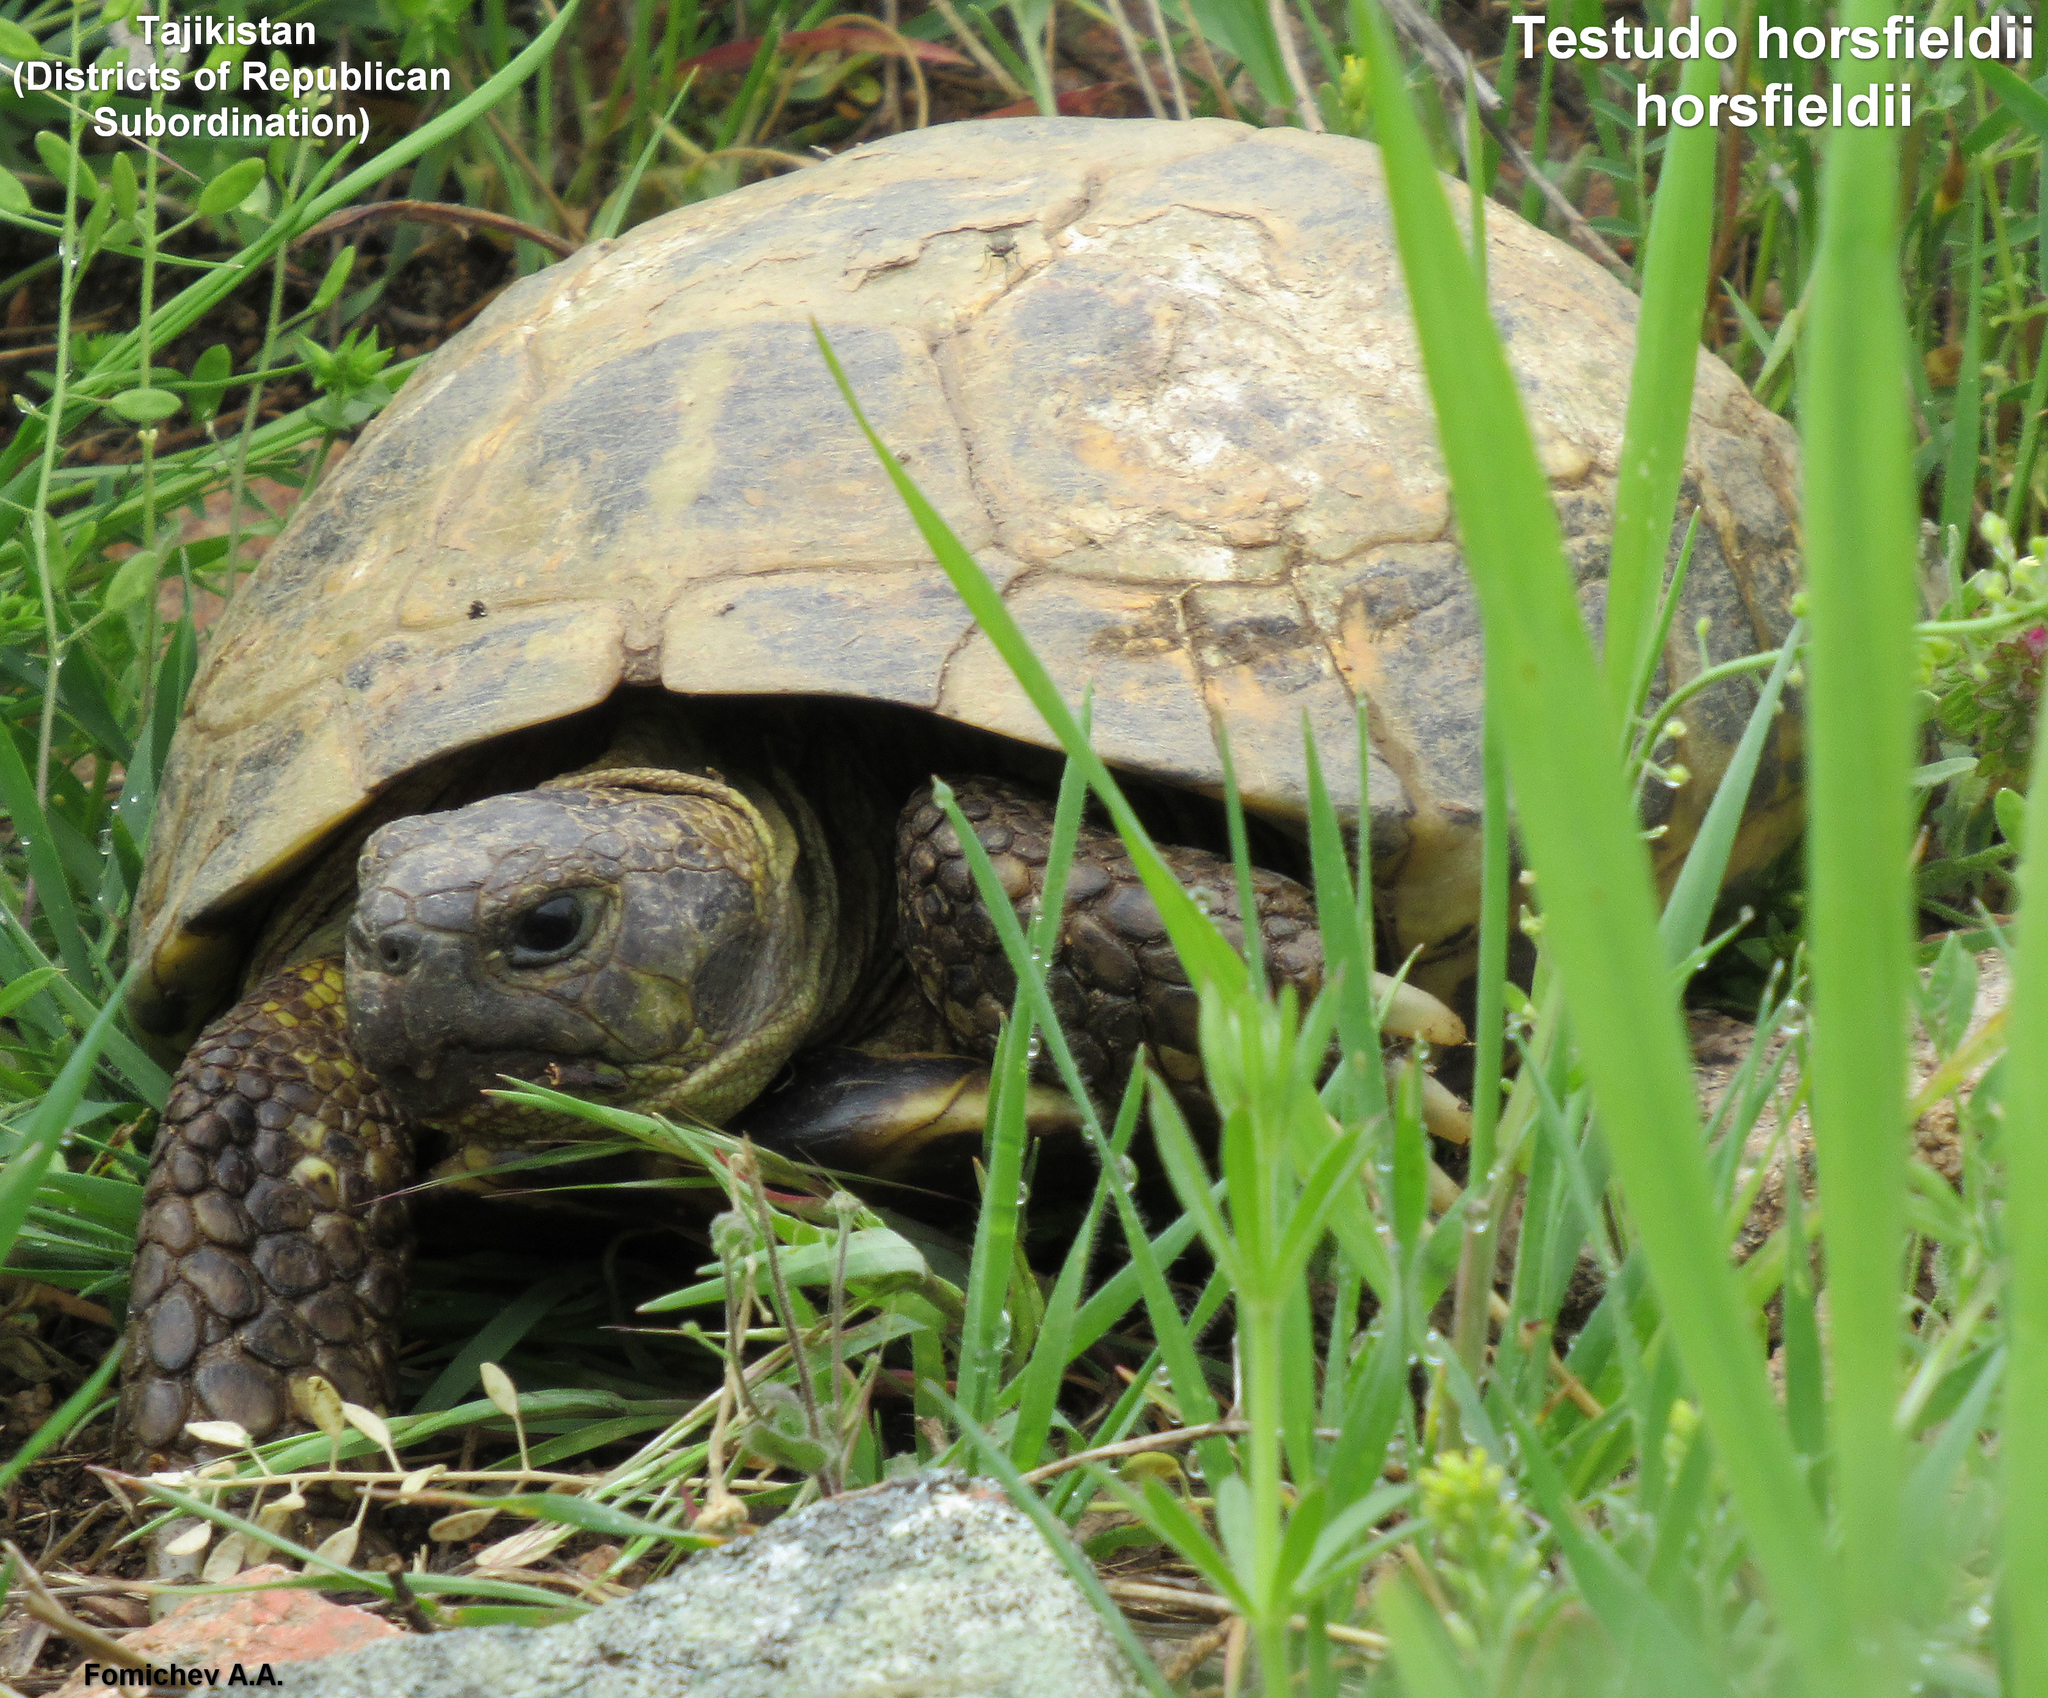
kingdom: Animalia
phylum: Chordata
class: Testudines
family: Testudinidae
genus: Testudo
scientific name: Testudo horsfieldii
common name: Central asia tortoise
